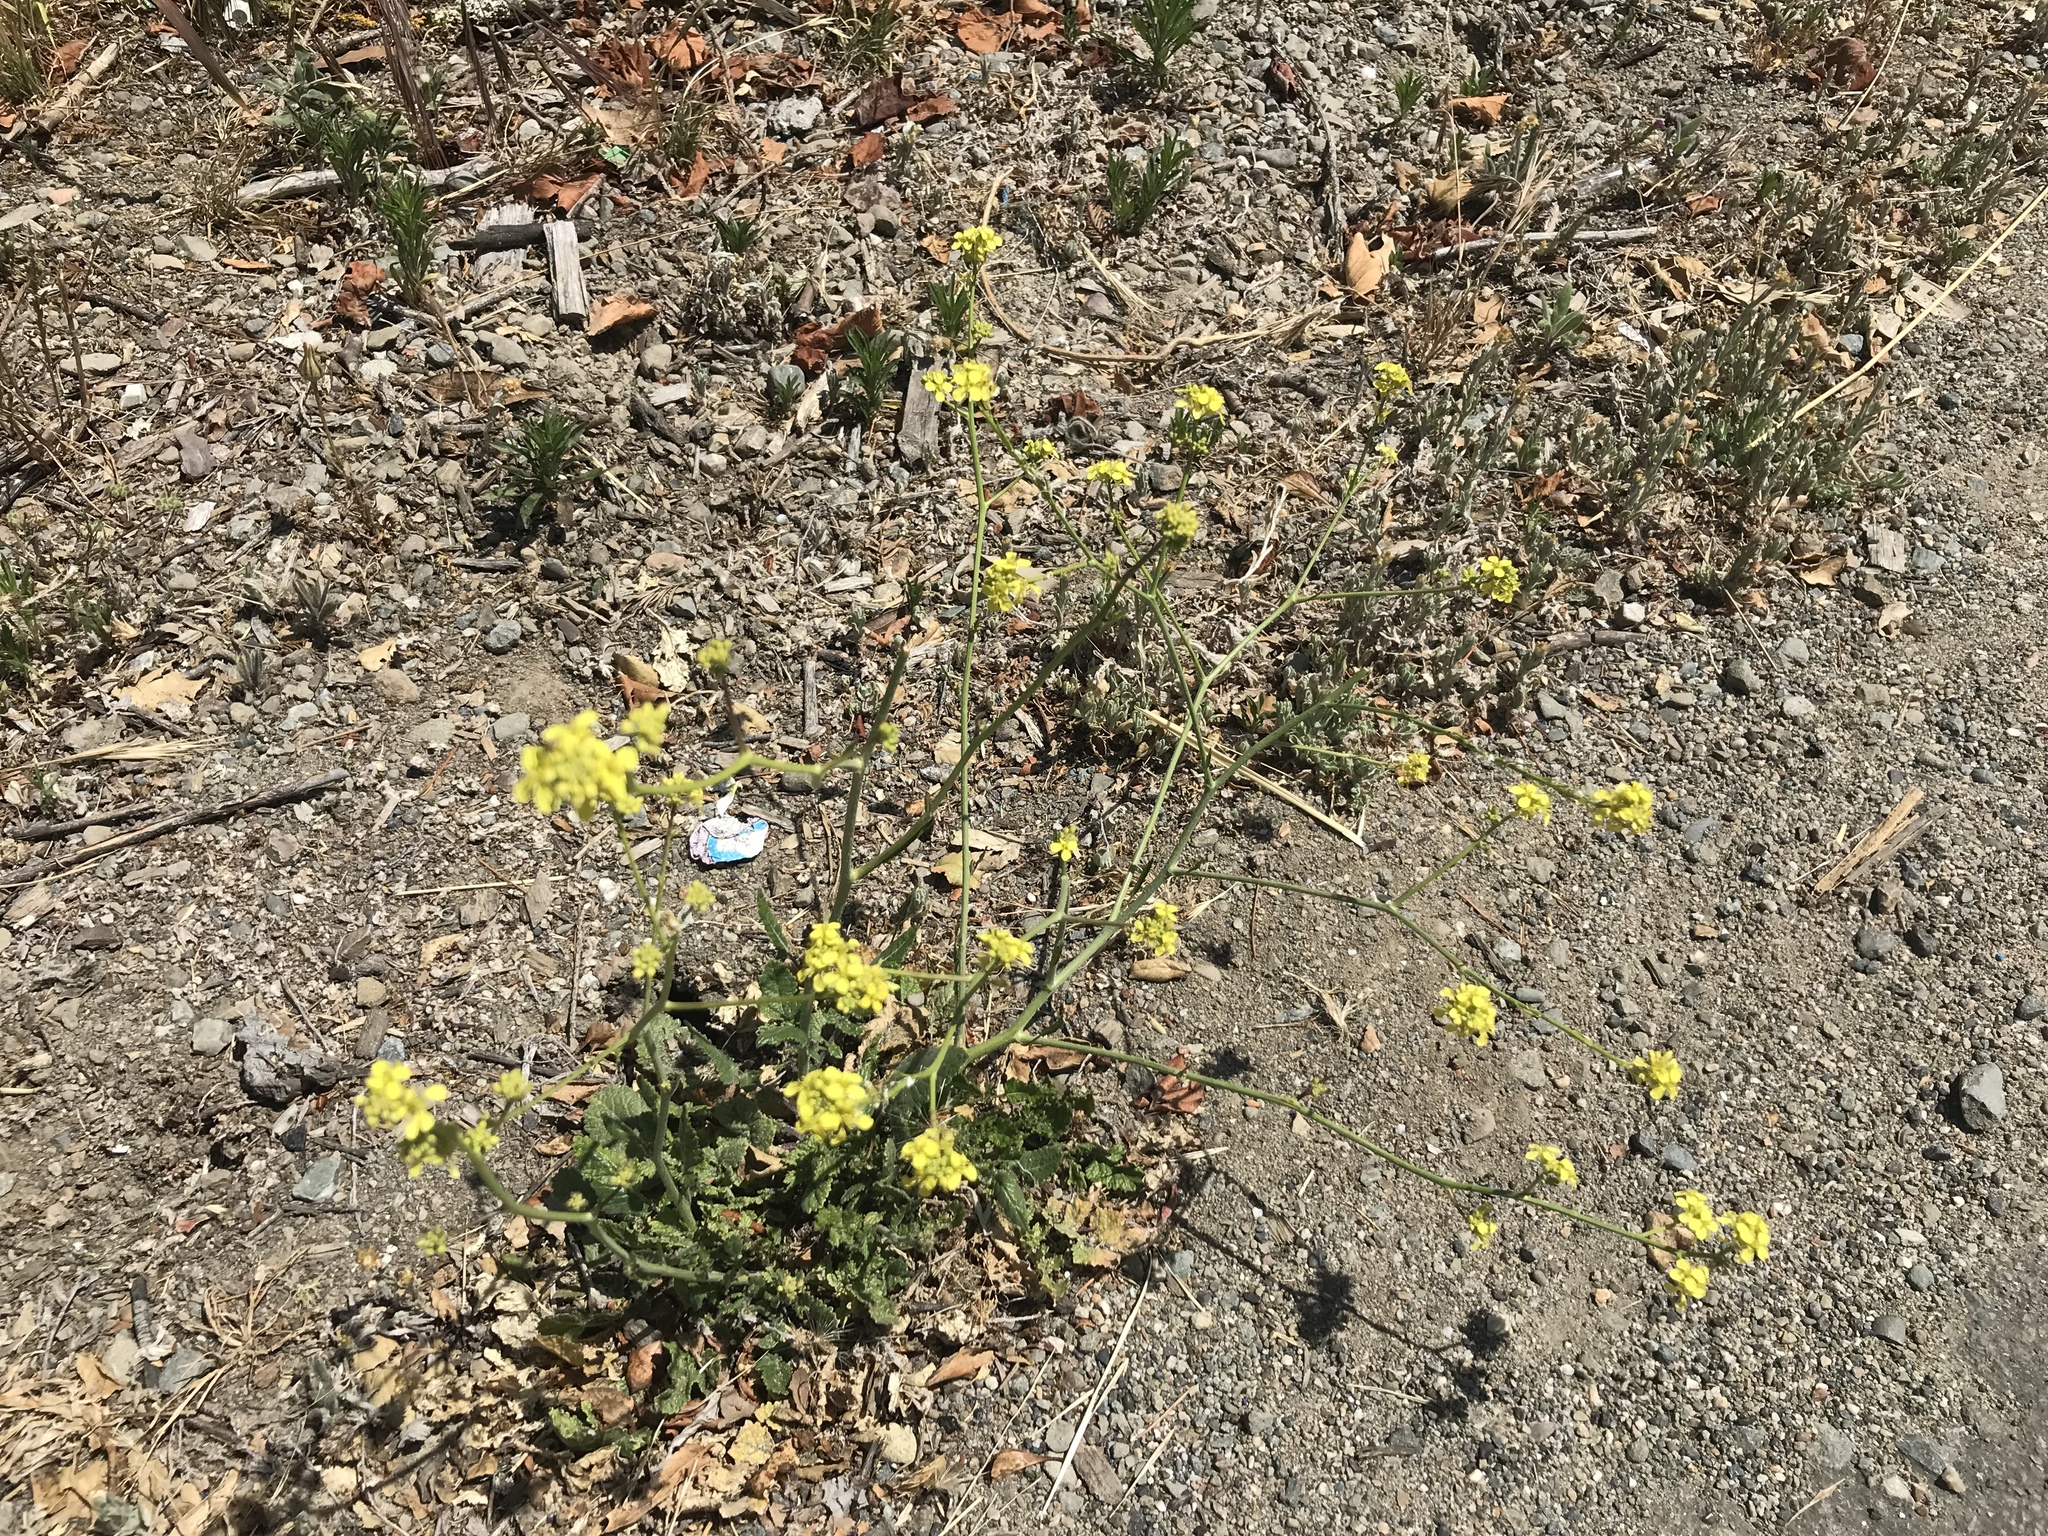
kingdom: Plantae
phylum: Tracheophyta
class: Magnoliopsida
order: Brassicales
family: Brassicaceae
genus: Hirschfeldia
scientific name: Hirschfeldia incana
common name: Hoary mustard
